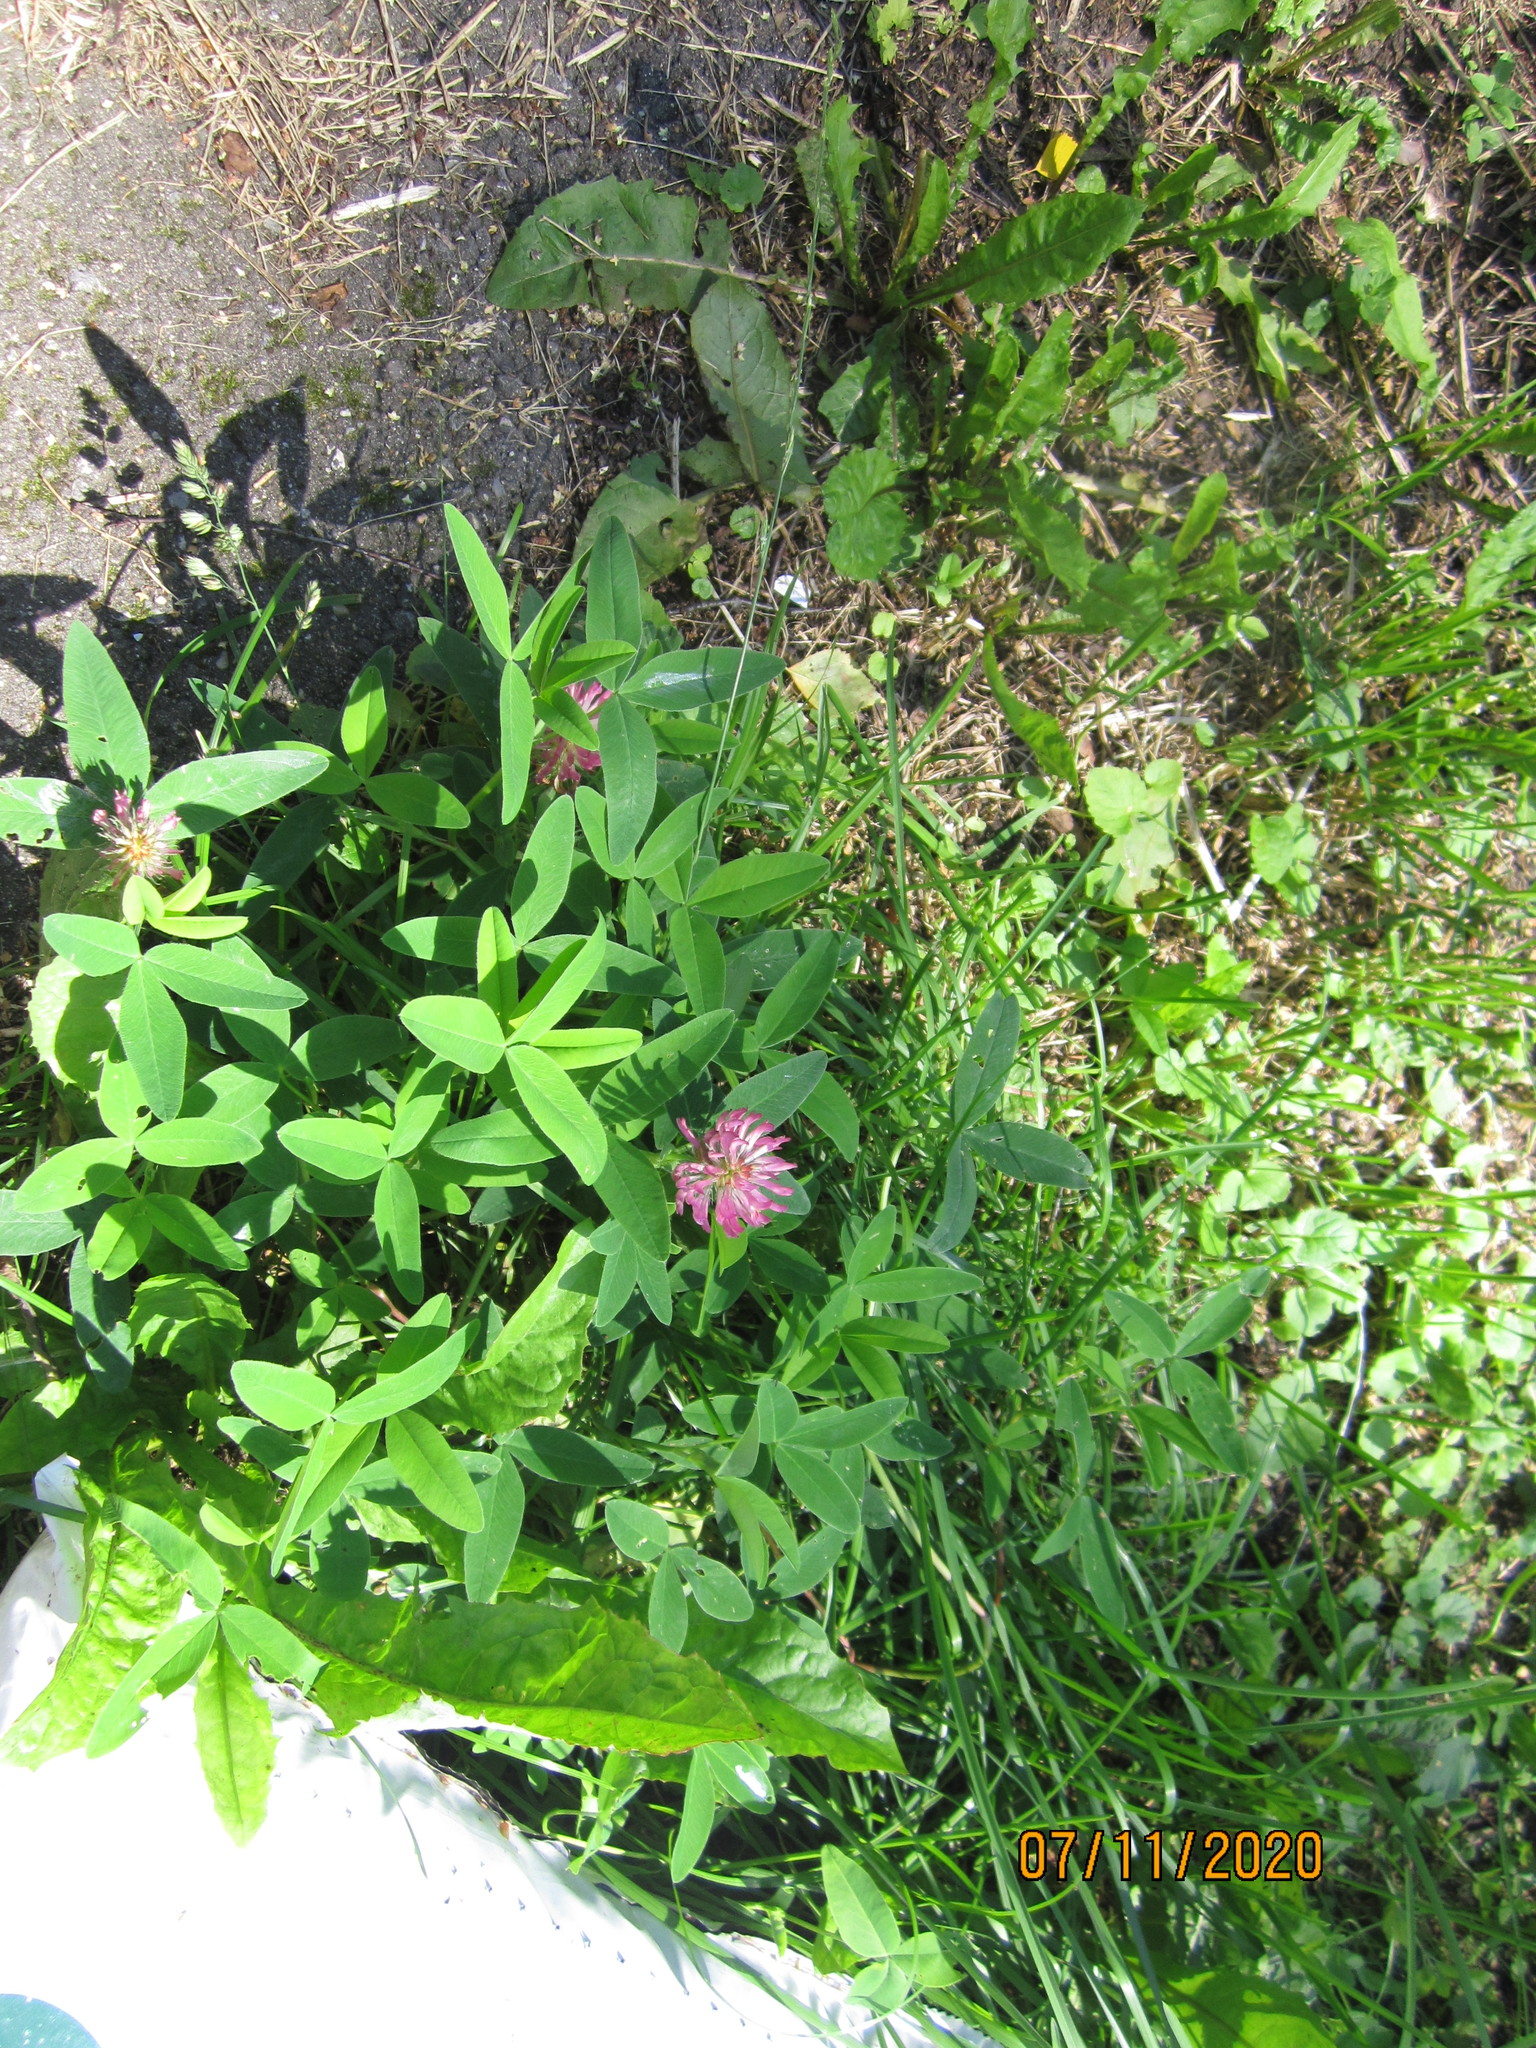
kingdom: Plantae
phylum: Tracheophyta
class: Magnoliopsida
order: Fabales
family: Fabaceae
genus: Trifolium
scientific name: Trifolium medium
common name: Zigzag clover
